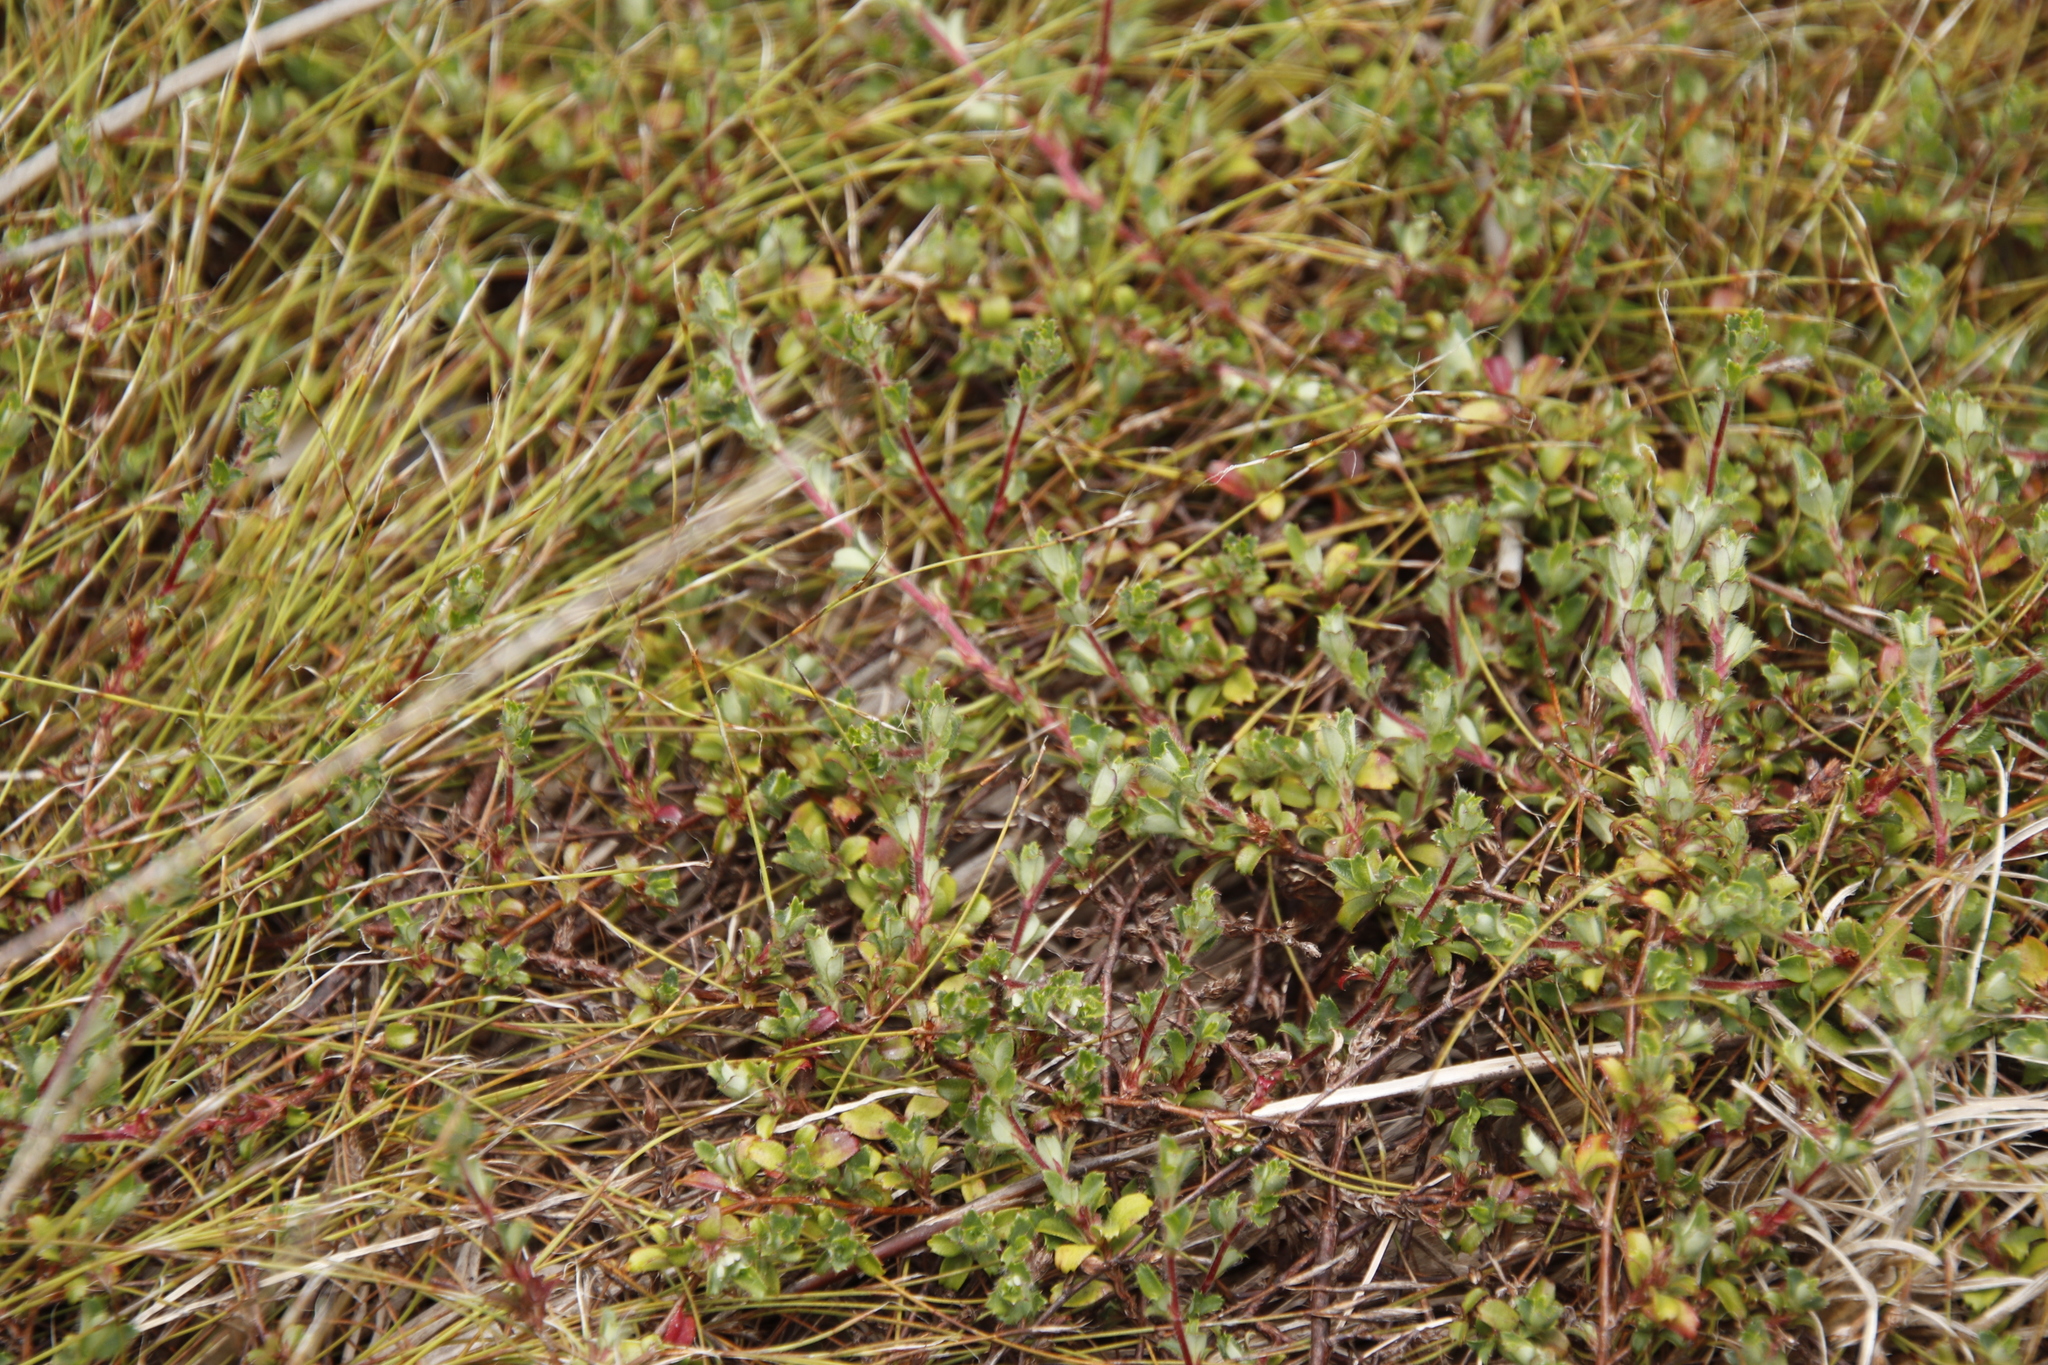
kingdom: Plantae
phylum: Tracheophyta
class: Magnoliopsida
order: Rosales
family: Rosaceae
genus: Cliffortia
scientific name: Cliffortia tricuspidata
